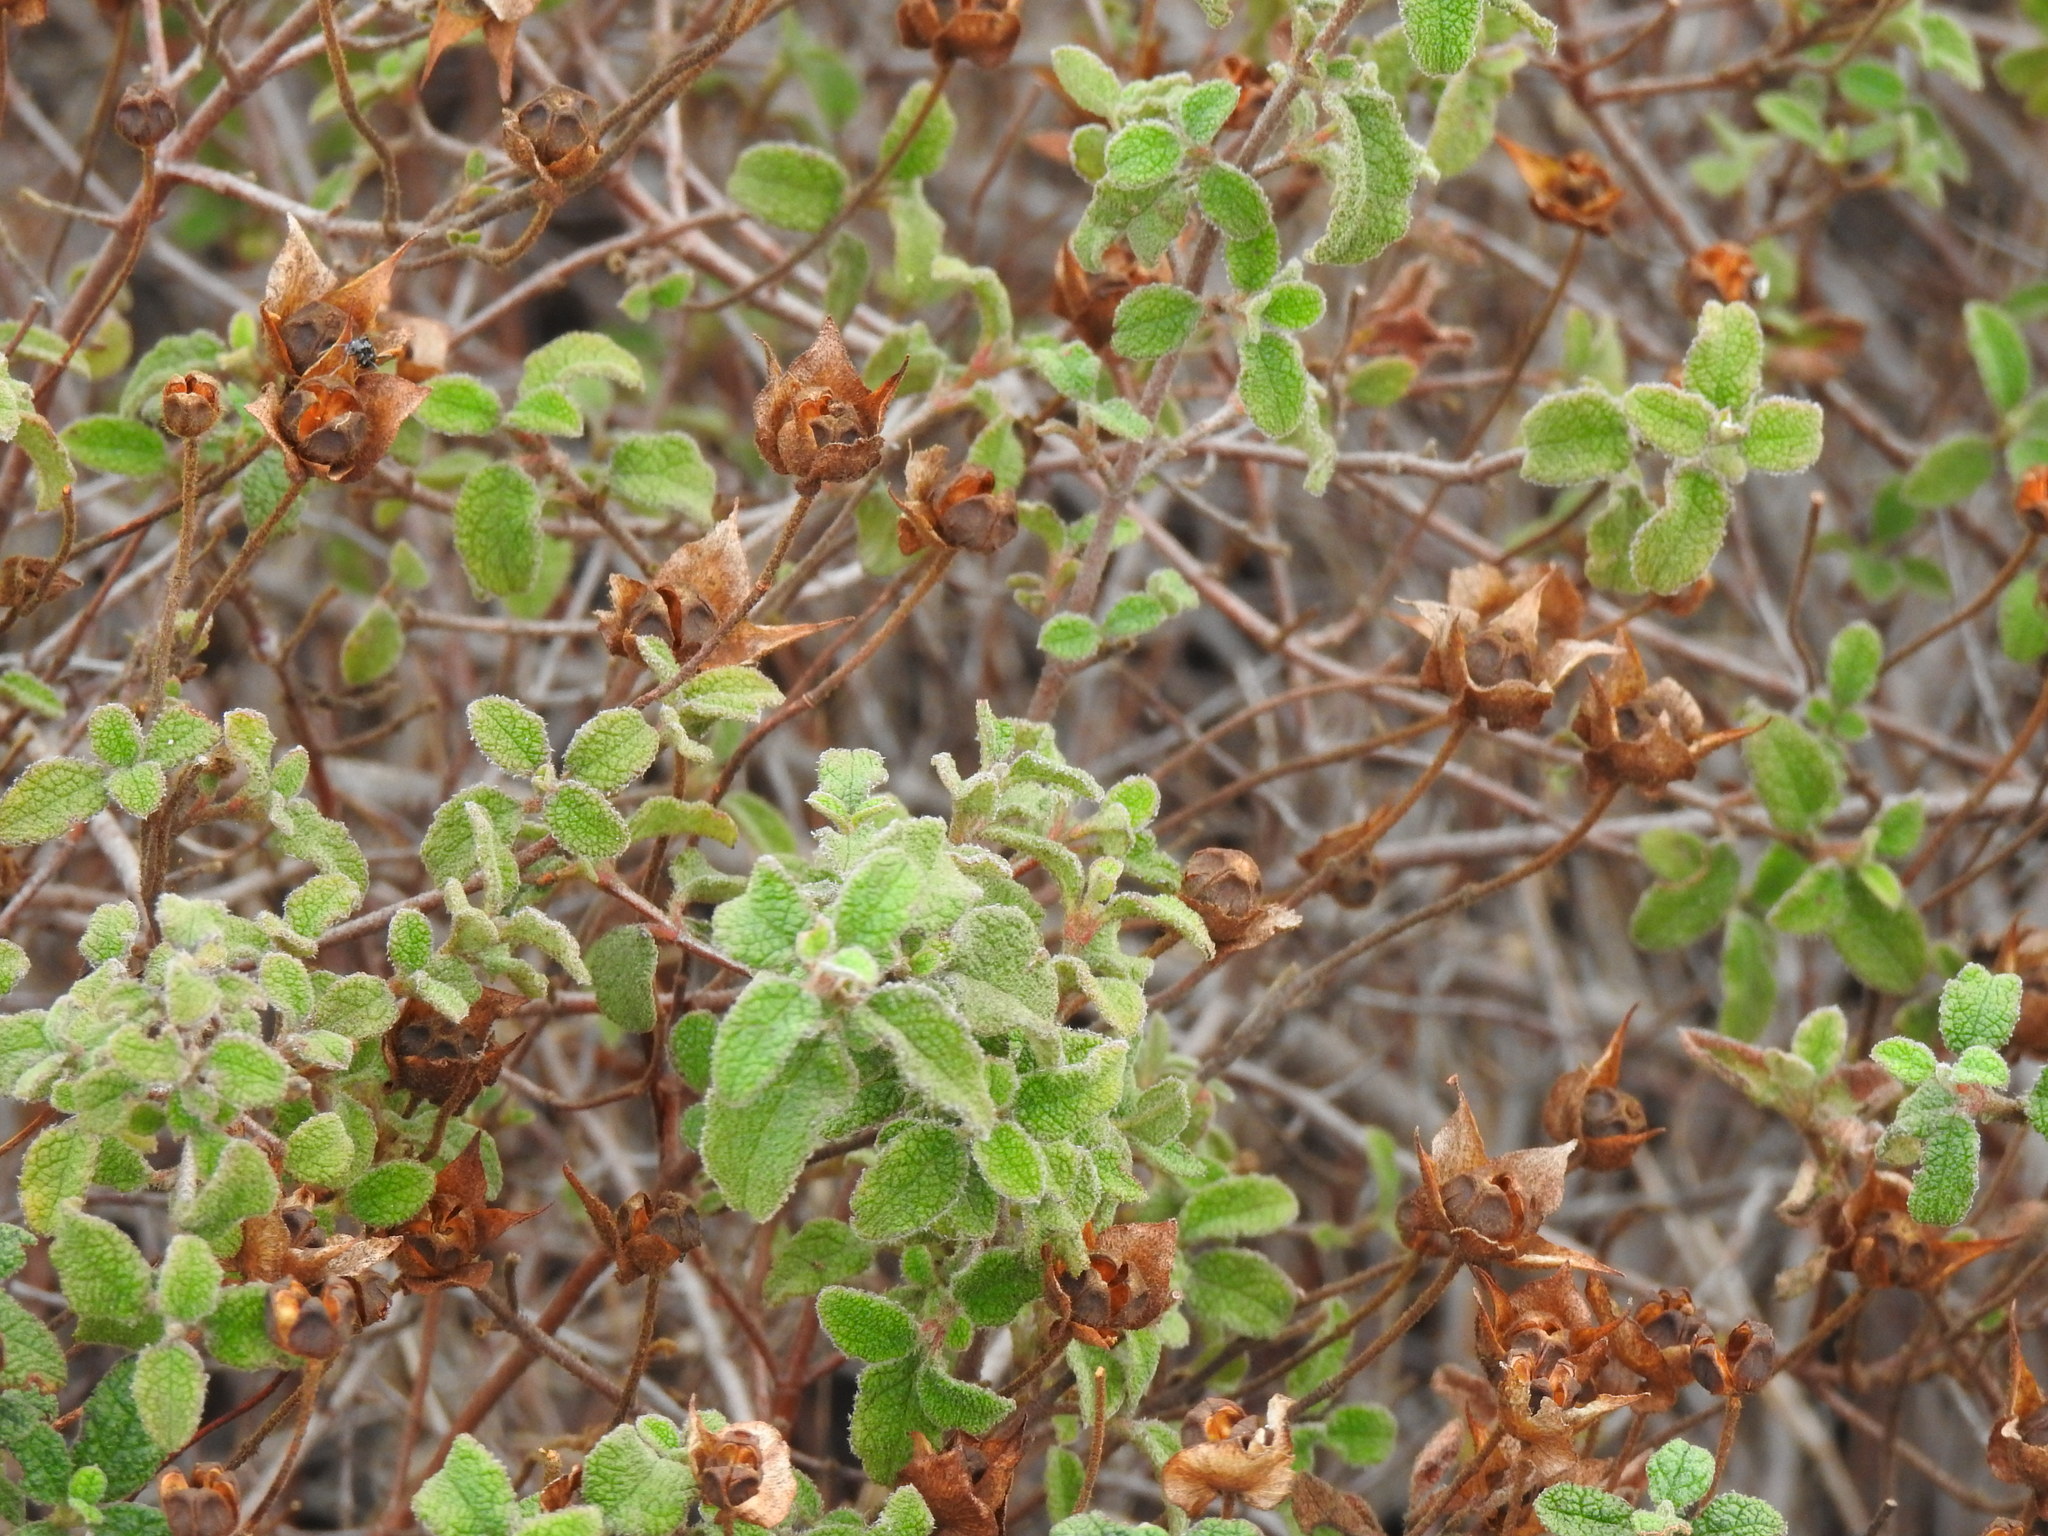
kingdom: Plantae
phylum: Tracheophyta
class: Magnoliopsida
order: Malvales
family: Cistaceae
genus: Cistus
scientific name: Cistus salviifolius
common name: Salvia cistus
